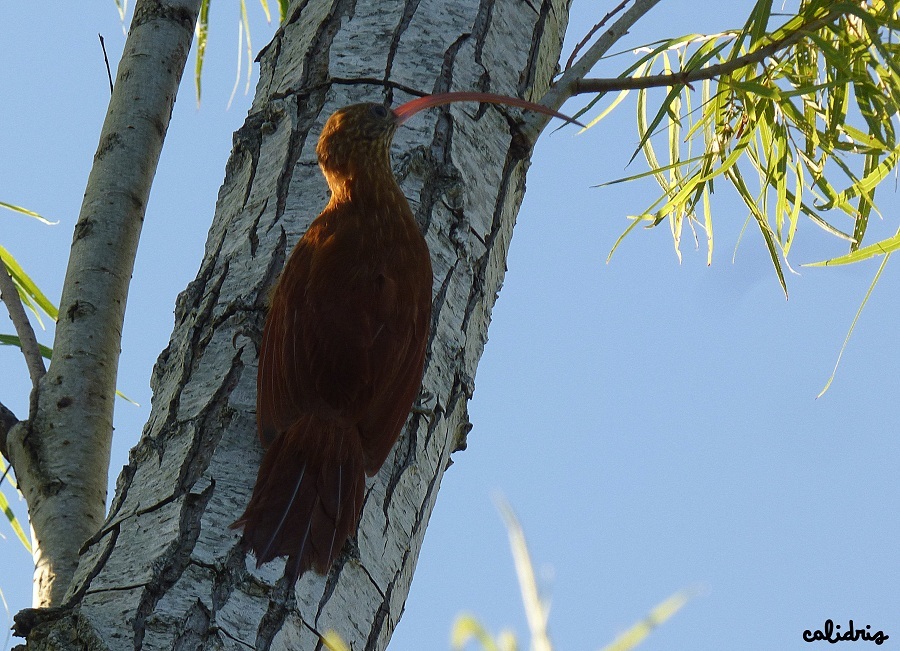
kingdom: Animalia
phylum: Chordata
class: Aves
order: Passeriformes
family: Furnariidae
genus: Campylorhamphus
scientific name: Campylorhamphus trochilirostris
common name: Red-billed scythebill
